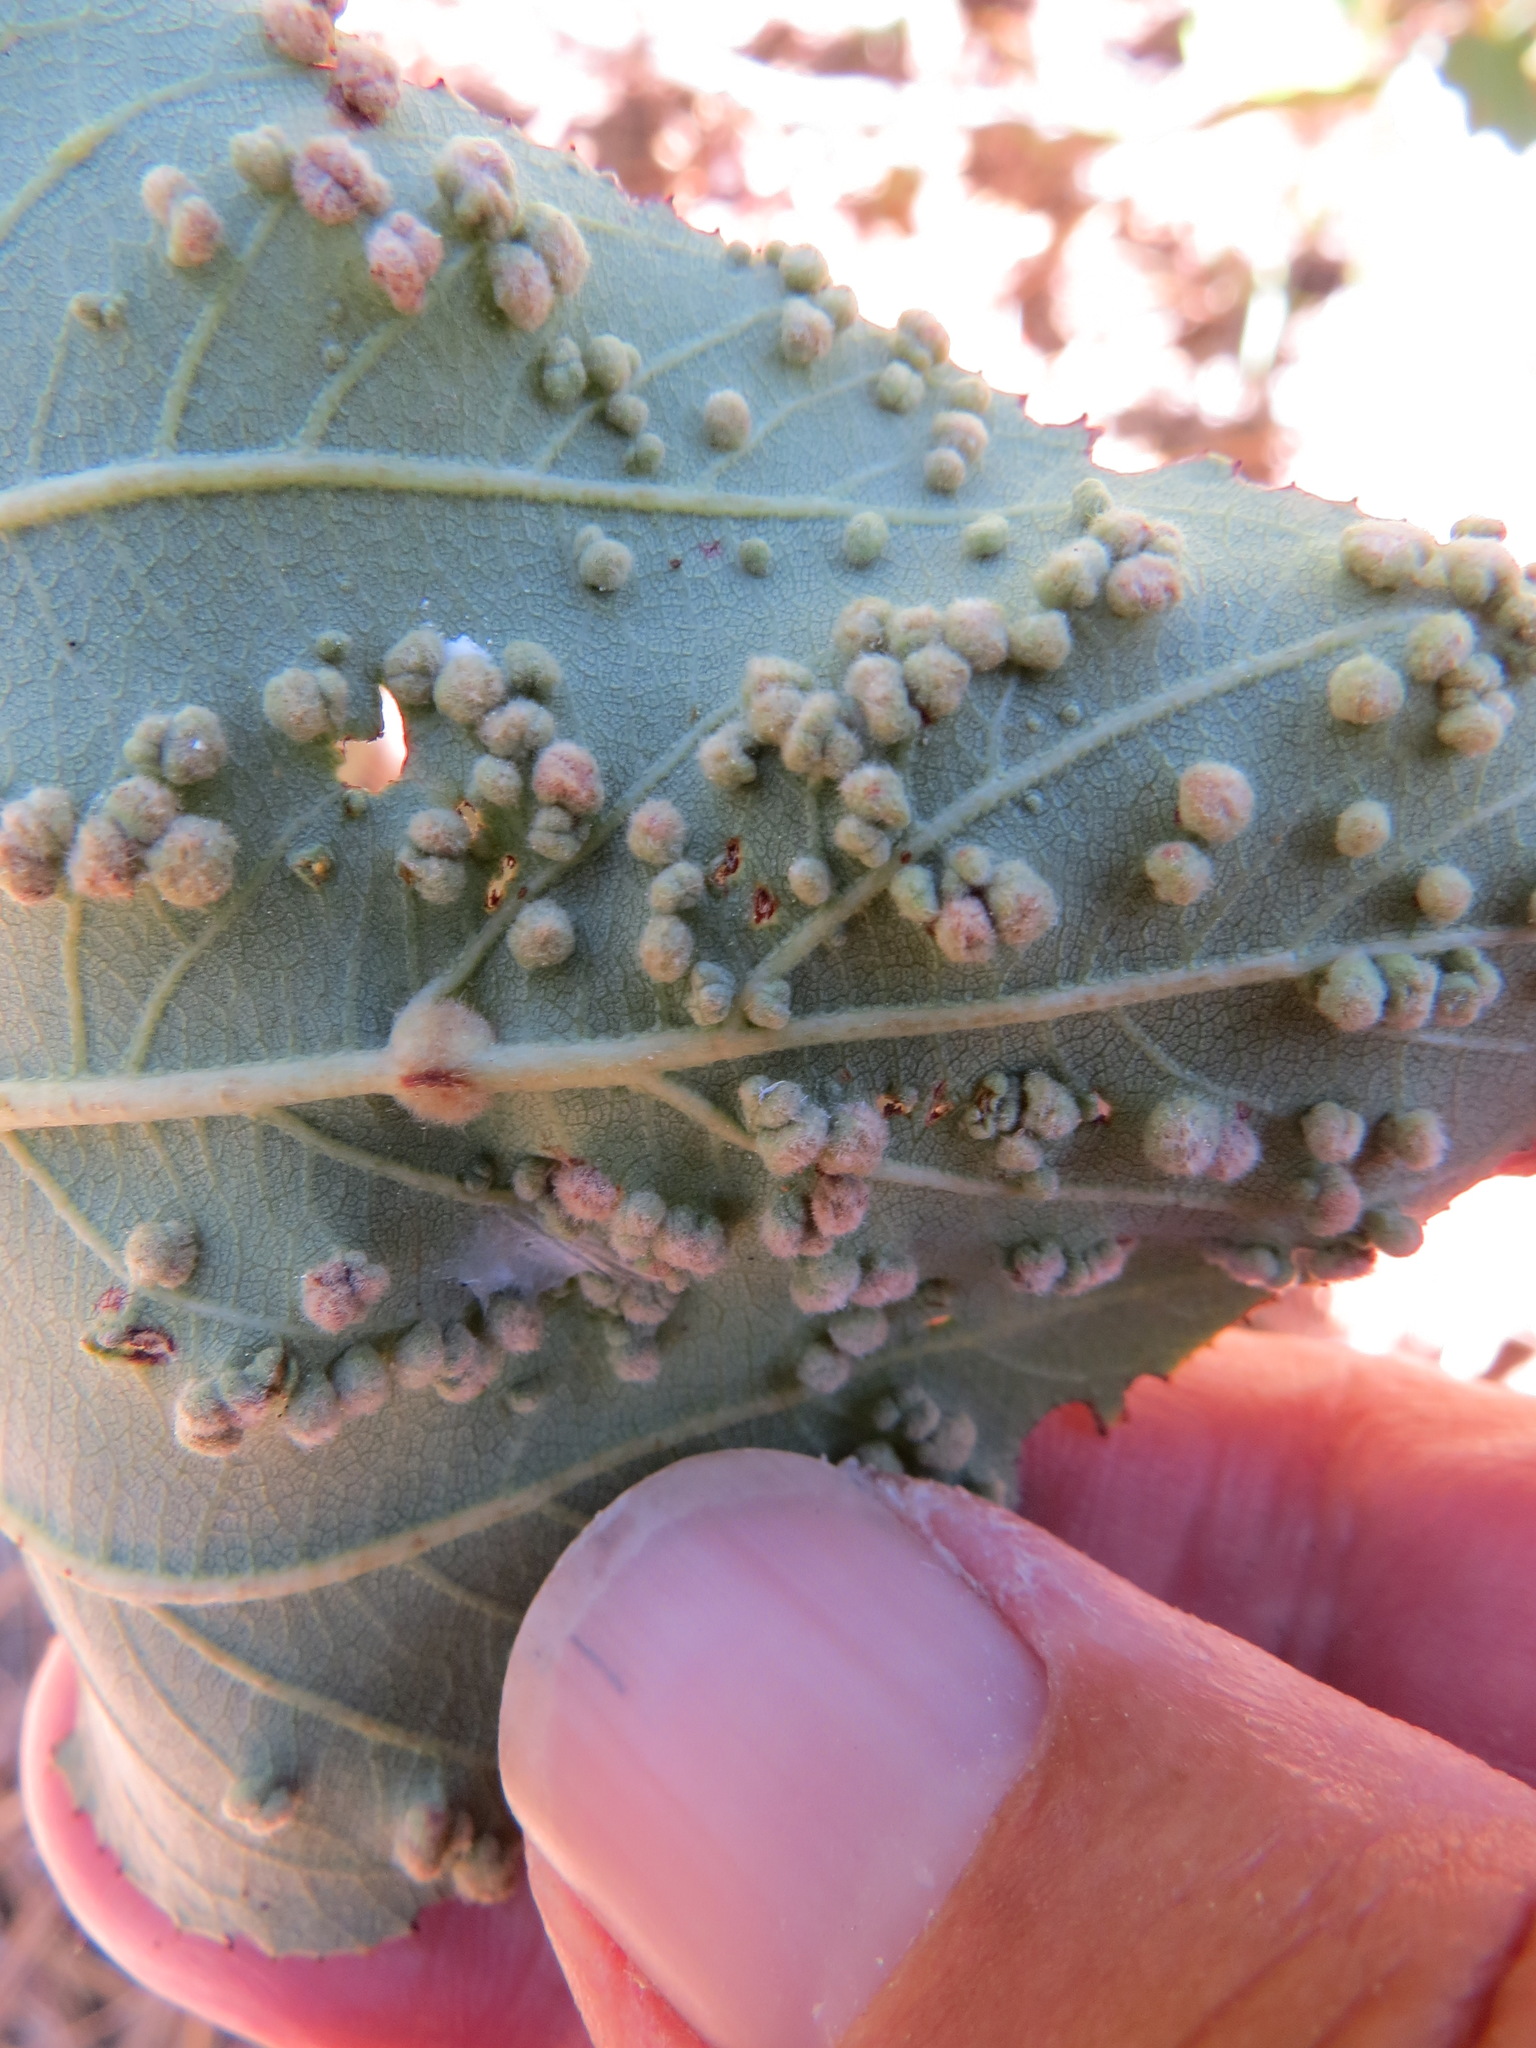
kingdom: Animalia
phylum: Arthropoda
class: Arachnida
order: Trombidiformes
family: Eriophyidae
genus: Aceria
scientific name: Aceria
